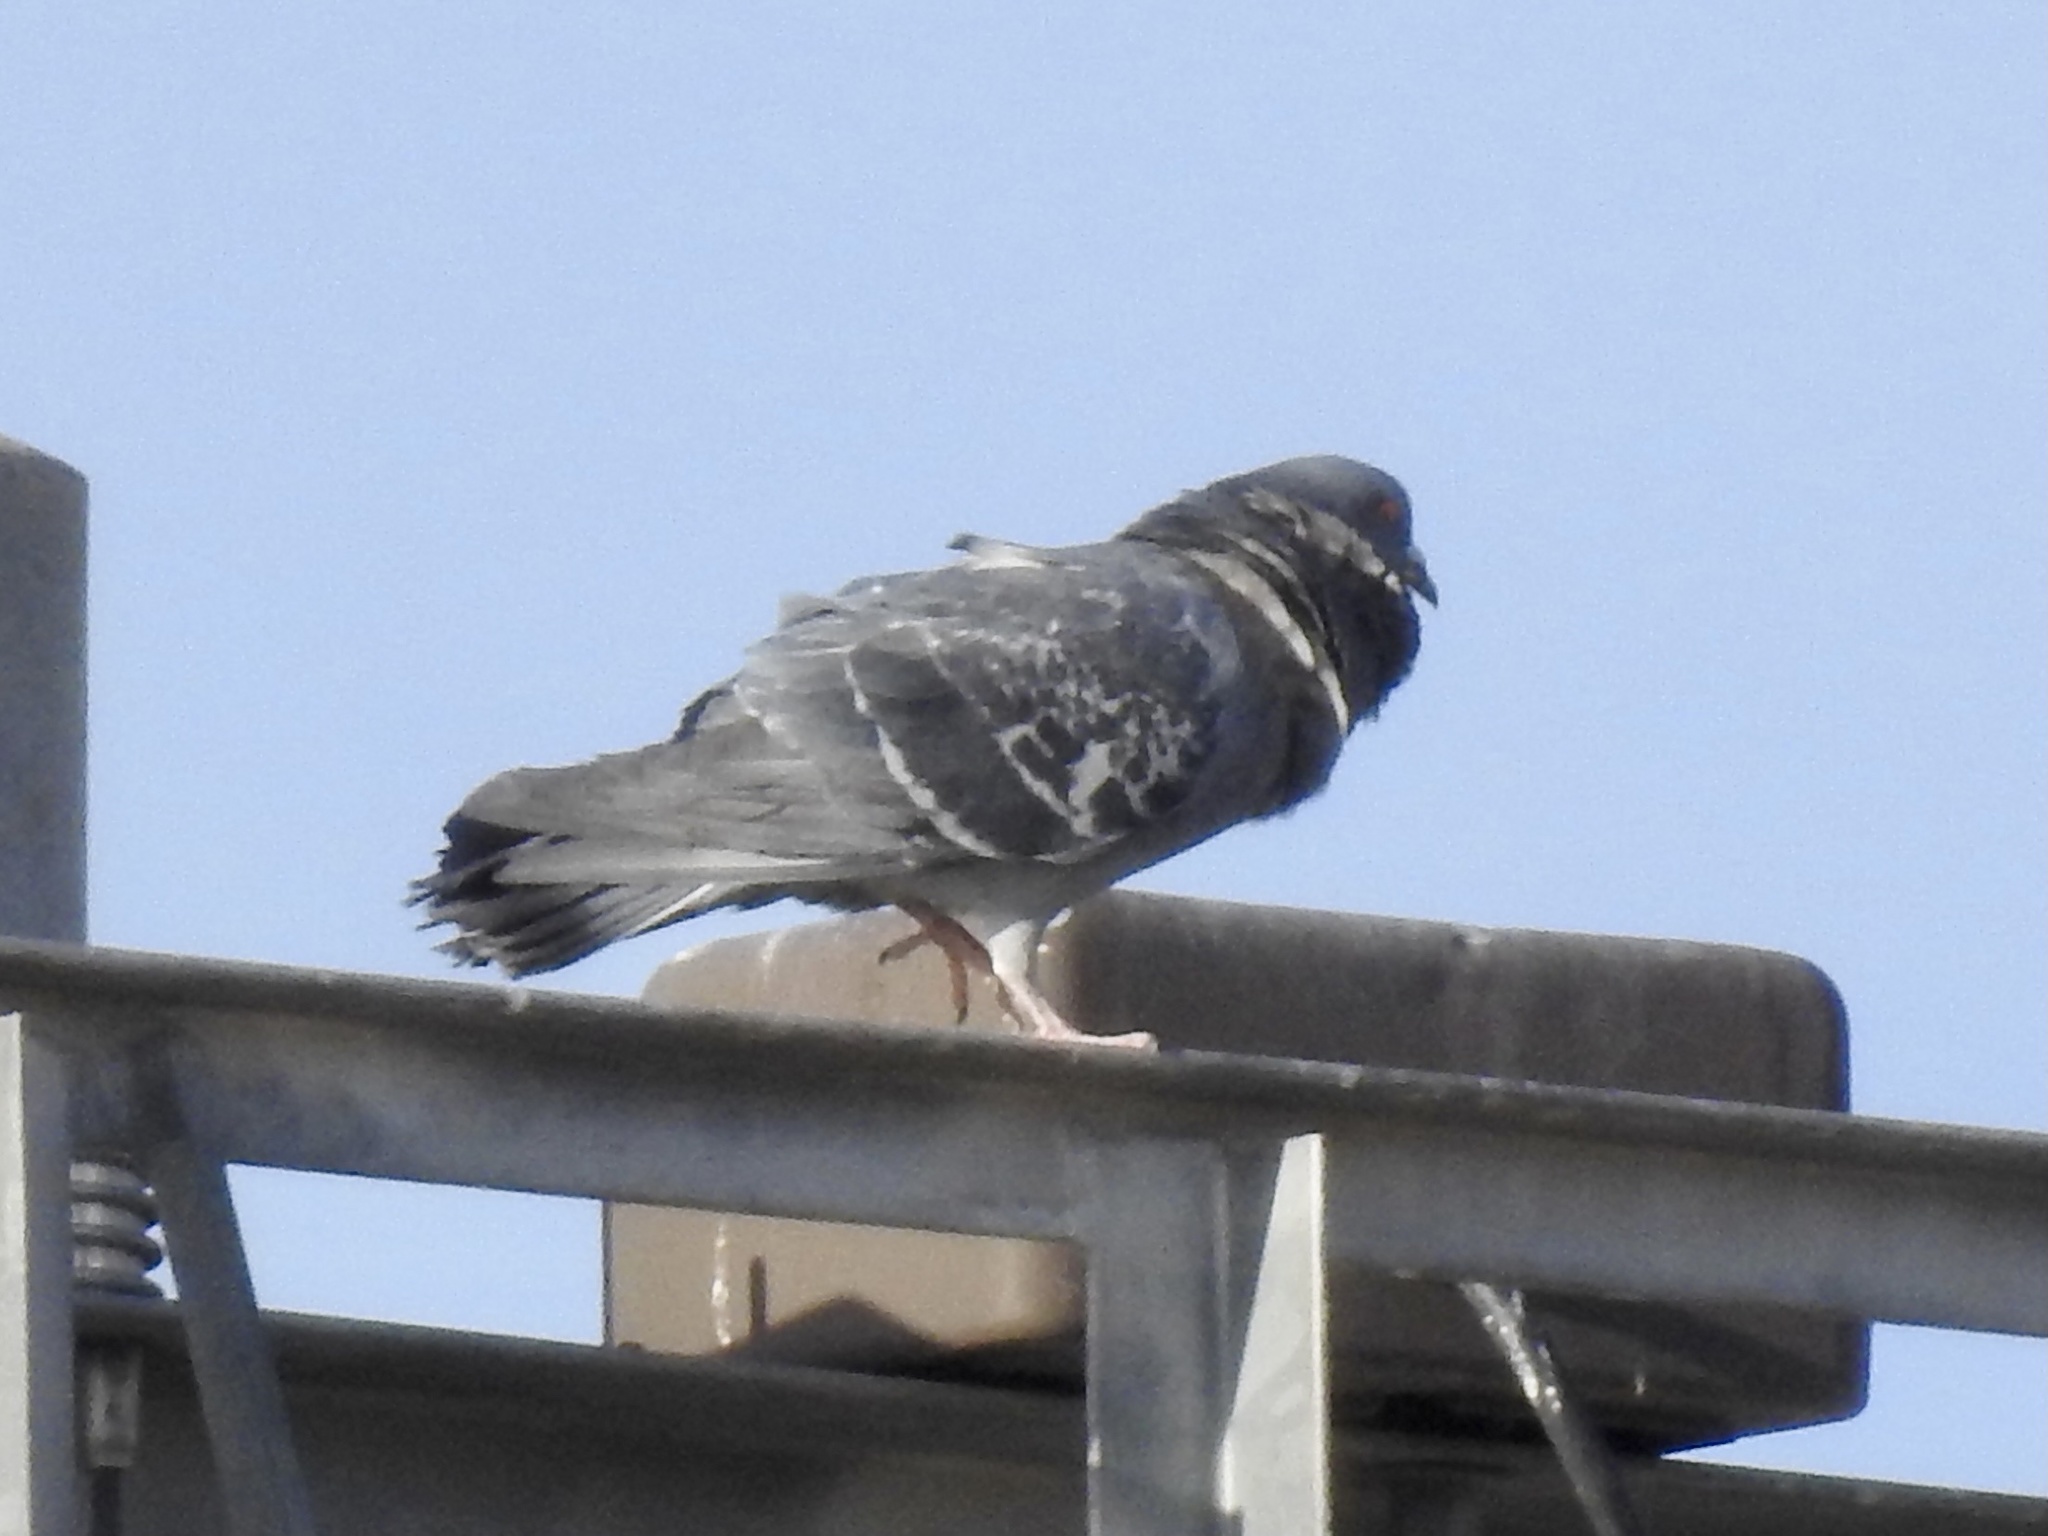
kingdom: Animalia
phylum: Chordata
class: Aves
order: Columbiformes
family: Columbidae
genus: Columba
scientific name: Columba livia
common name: Rock pigeon
